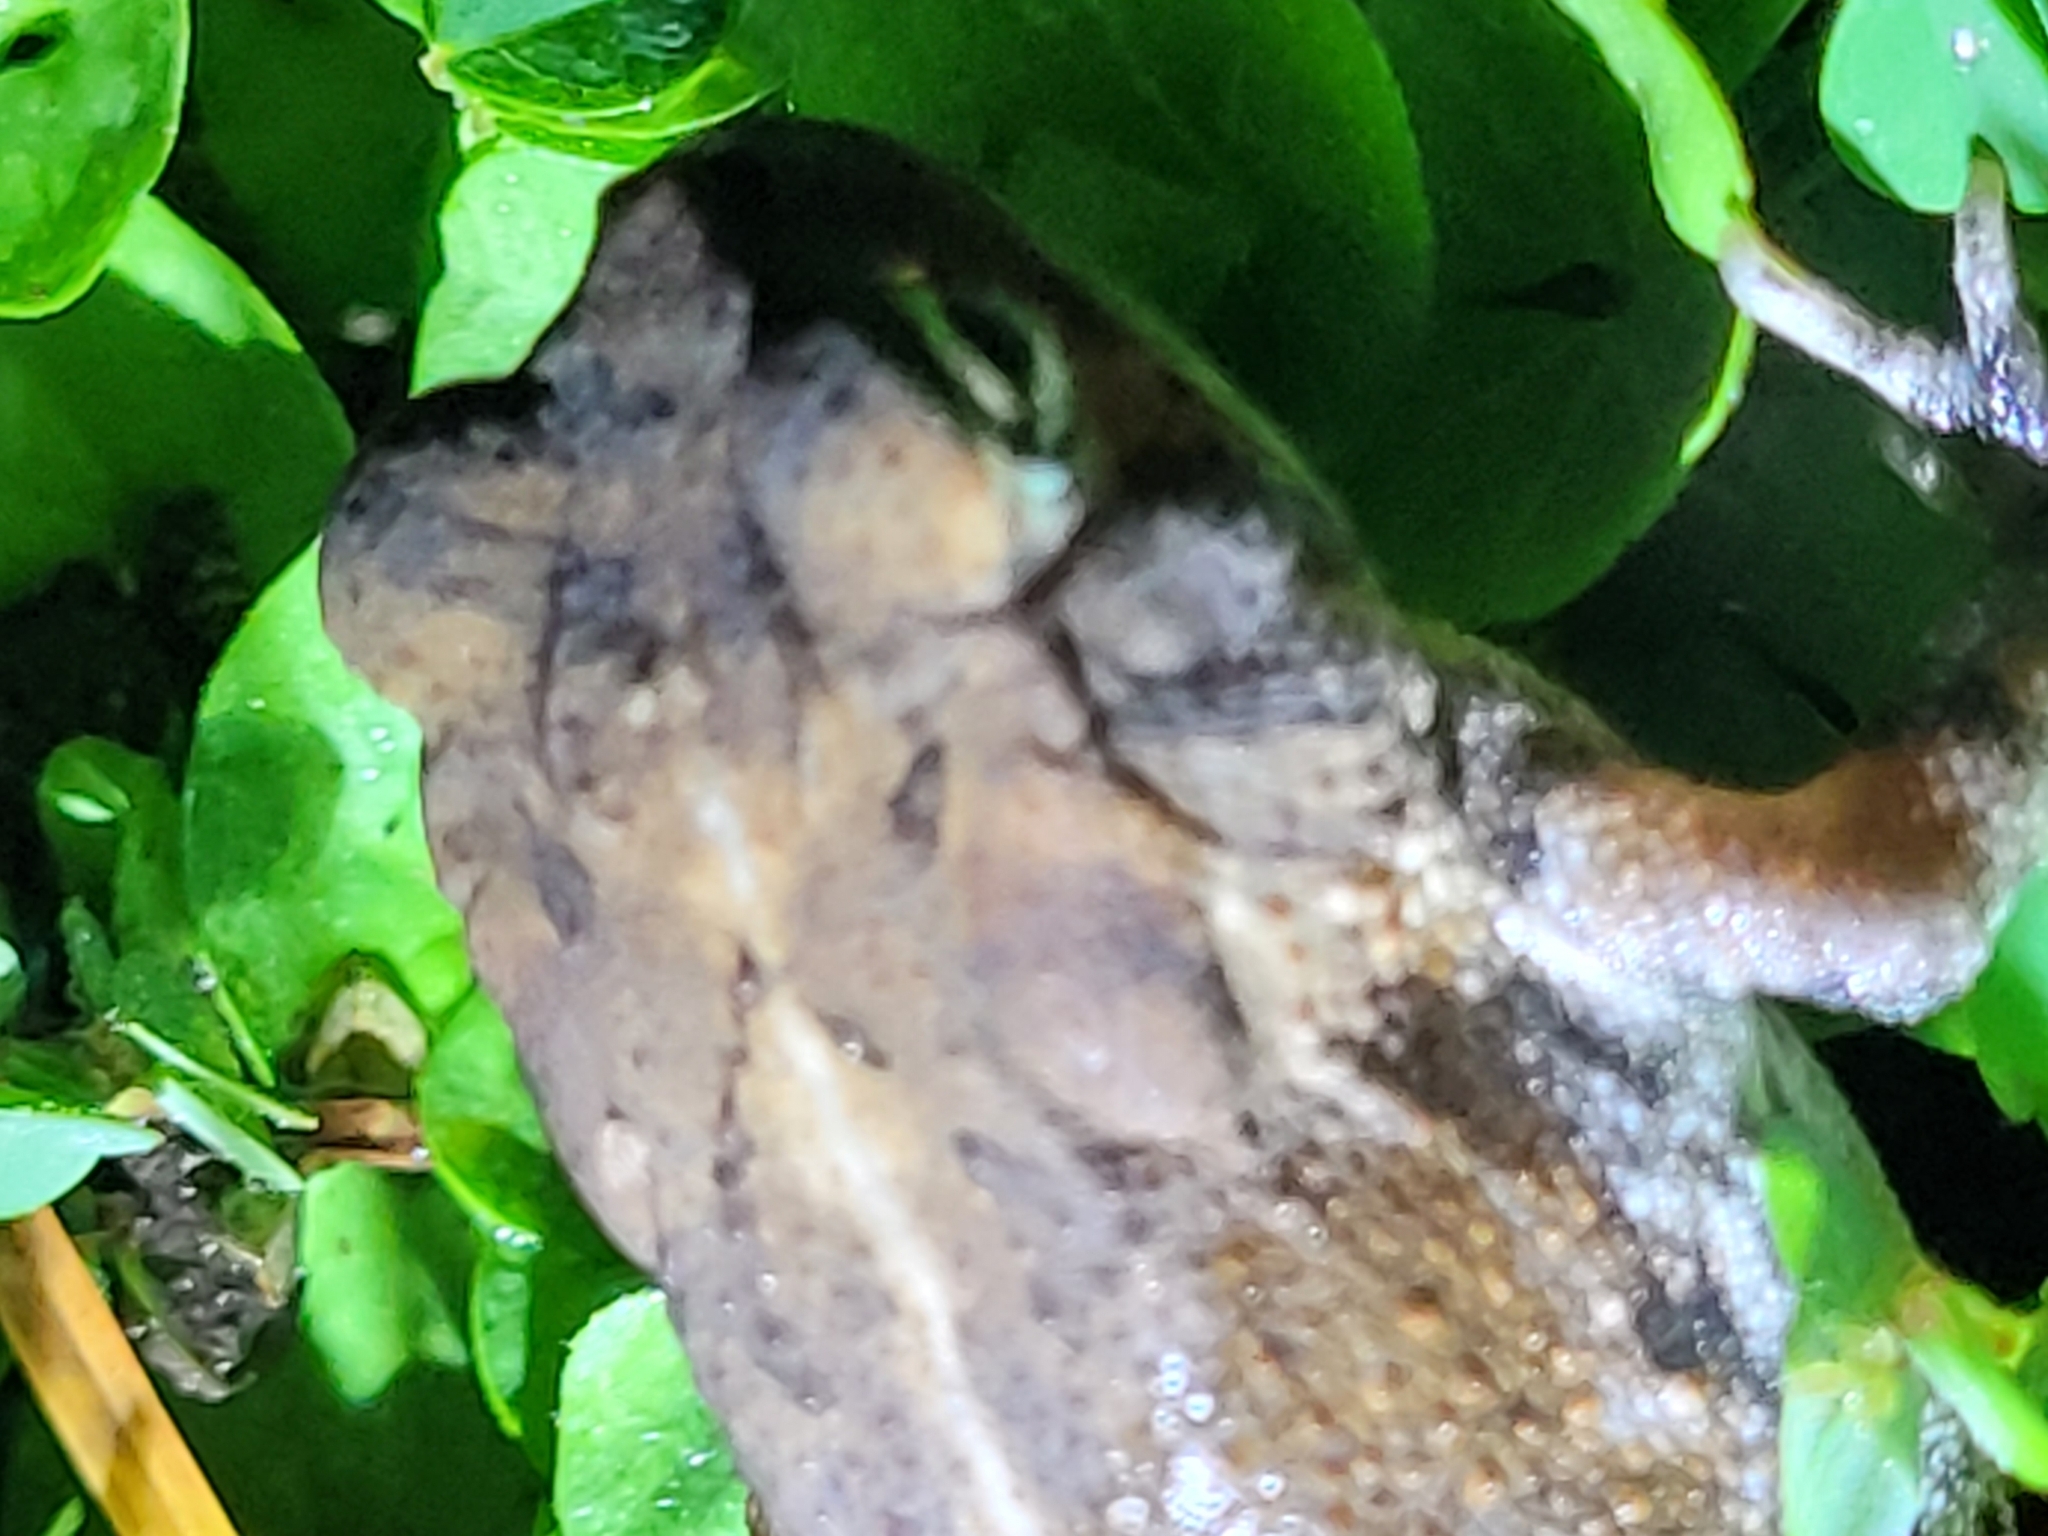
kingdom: Animalia
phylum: Chordata
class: Amphibia
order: Anura
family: Bufonidae
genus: Anaxyrus
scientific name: Anaxyrus terrestris
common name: Southern toad
